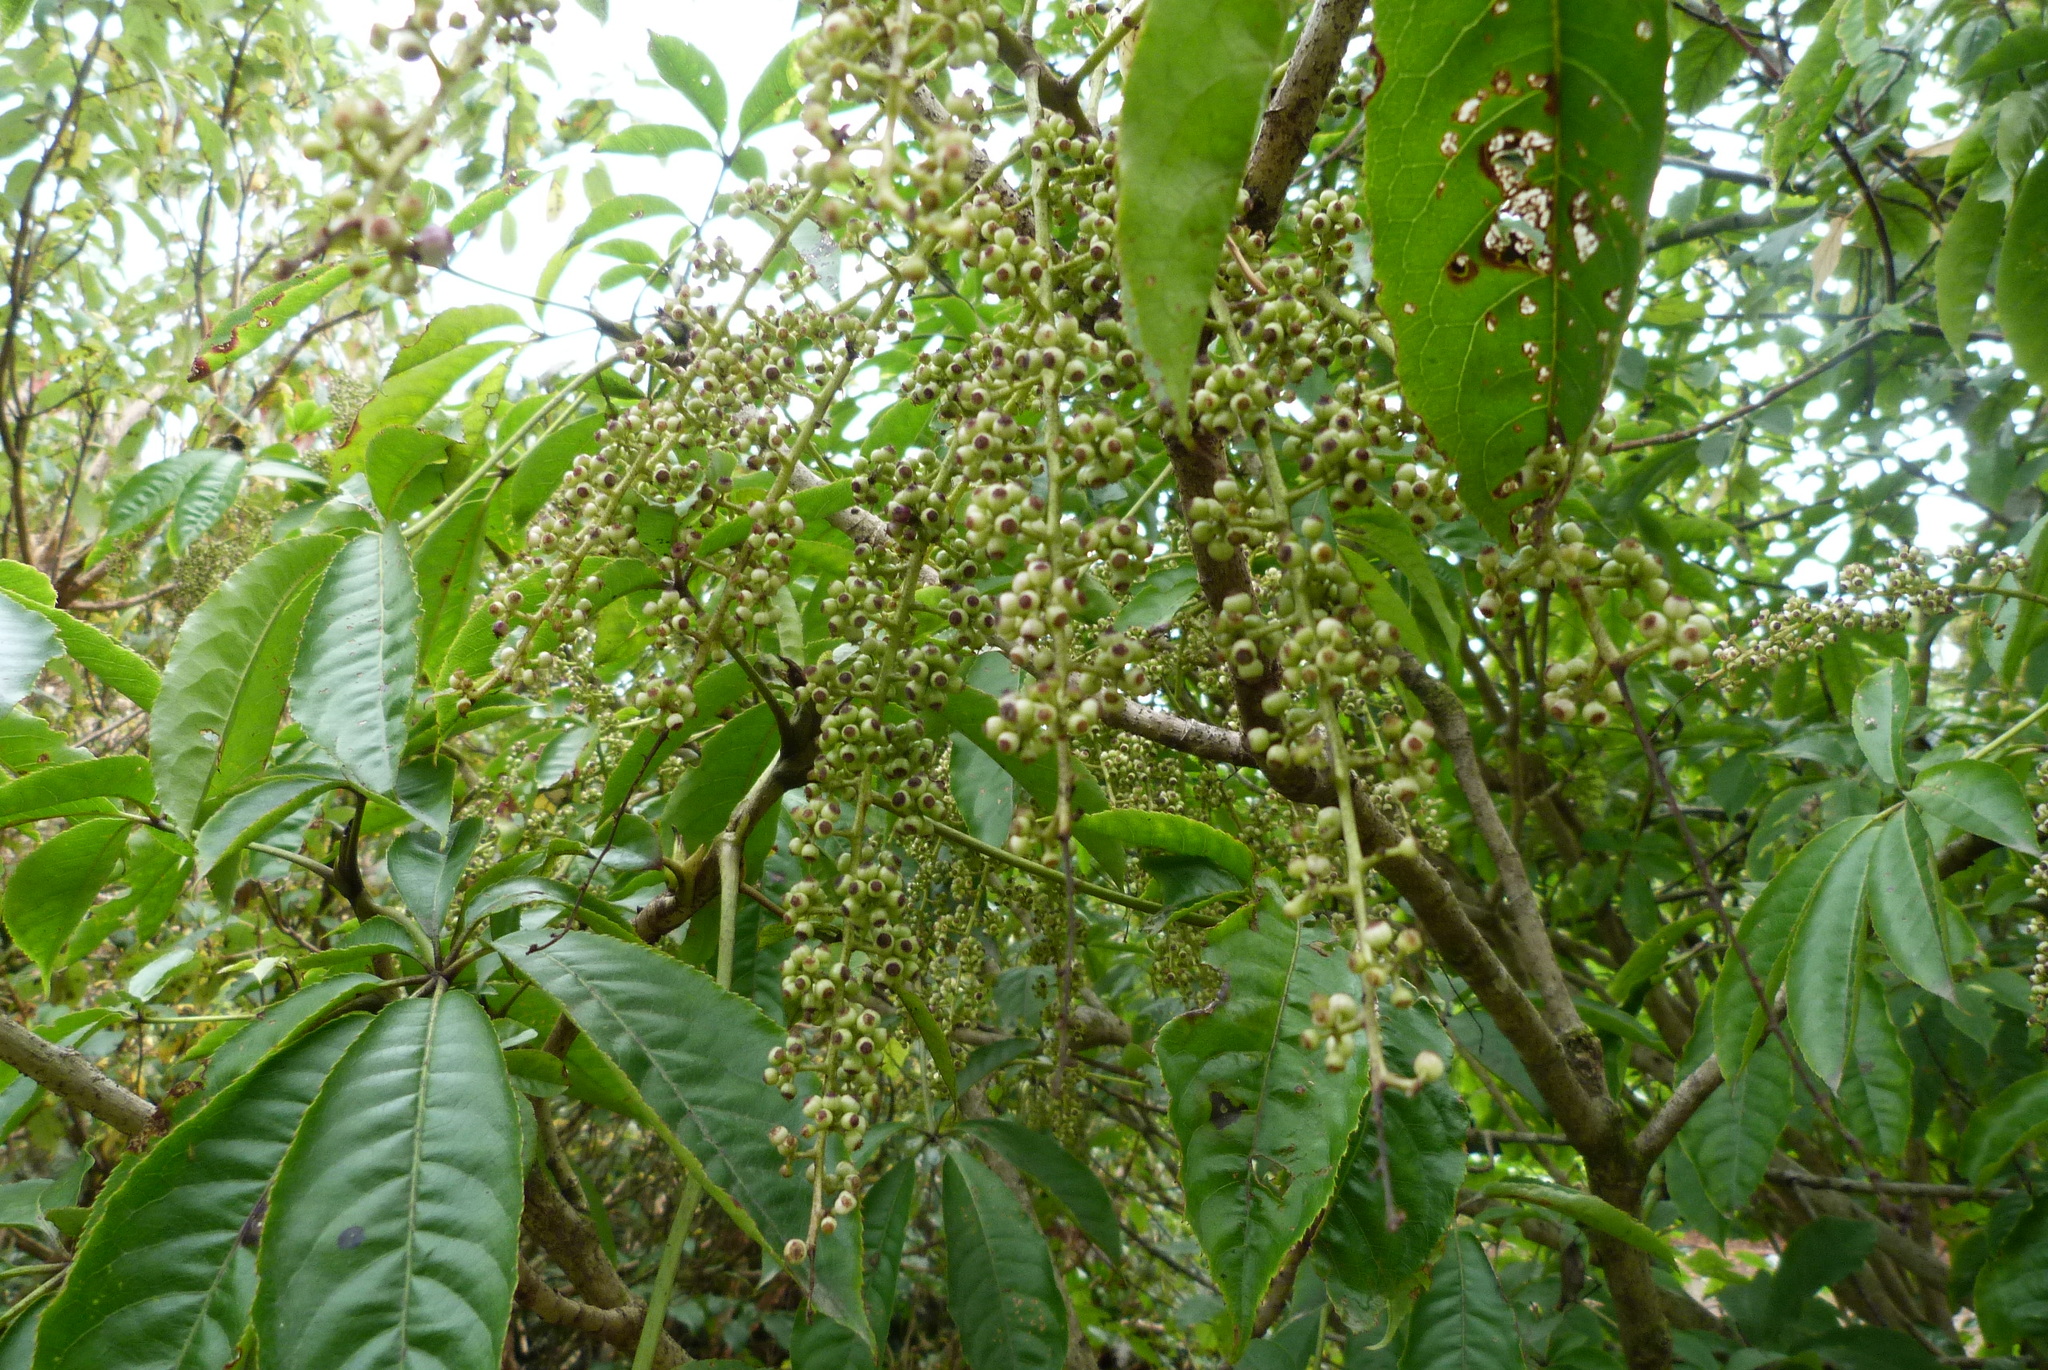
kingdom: Plantae
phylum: Tracheophyta
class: Magnoliopsida
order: Apiales
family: Araliaceae
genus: Schefflera
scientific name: Schefflera digitata
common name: Pate
